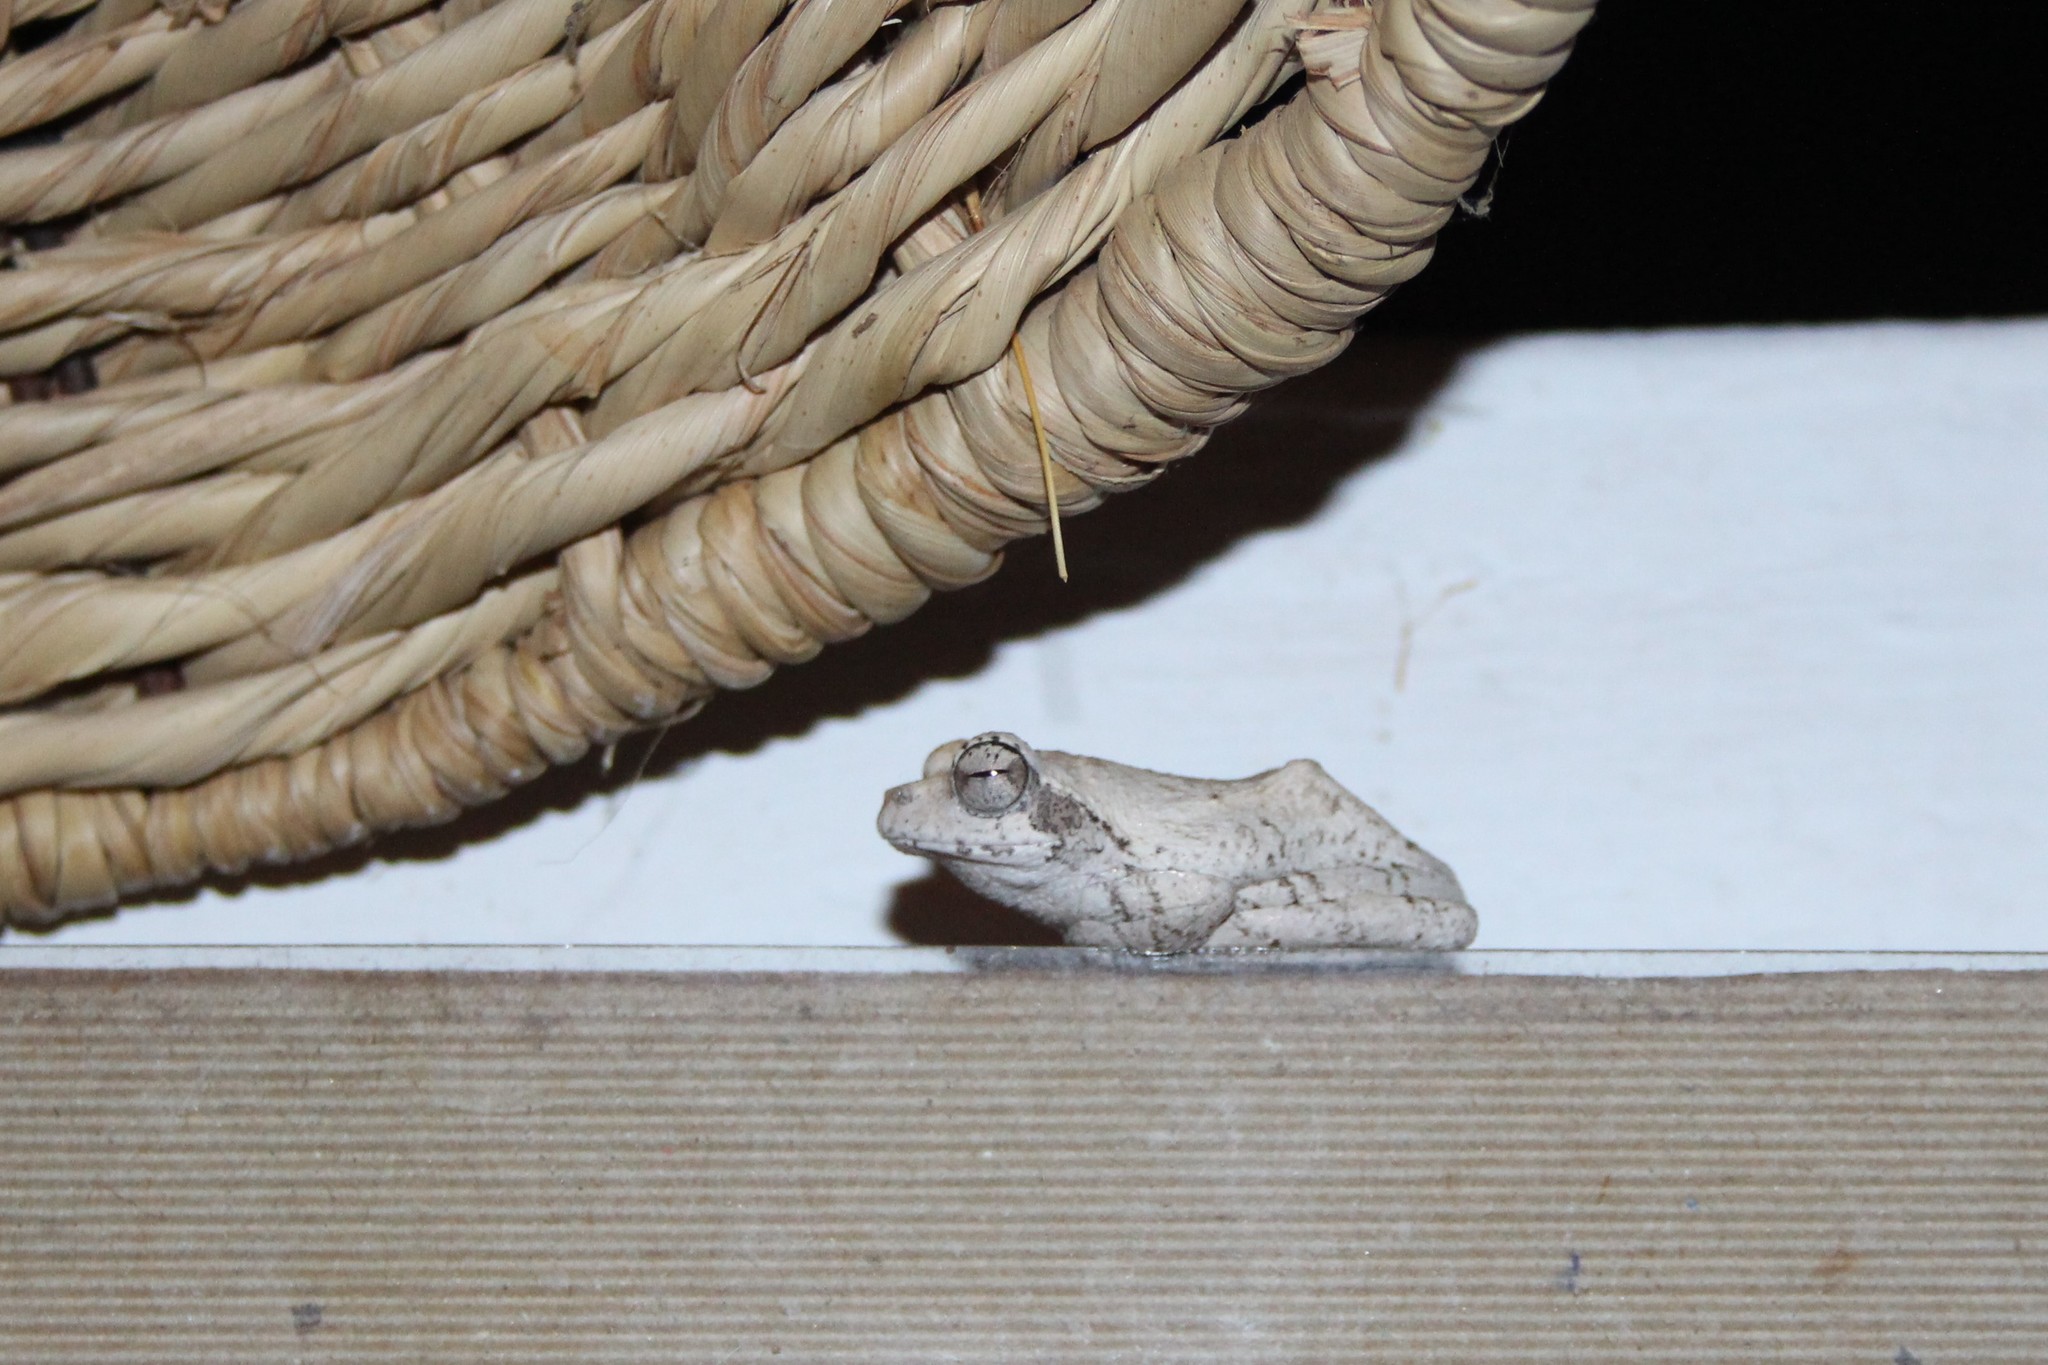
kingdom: Animalia
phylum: Chordata
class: Amphibia
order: Anura
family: Rhacophoridae
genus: Chiromantis
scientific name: Chiromantis xerampelina
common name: African gray treefrog
